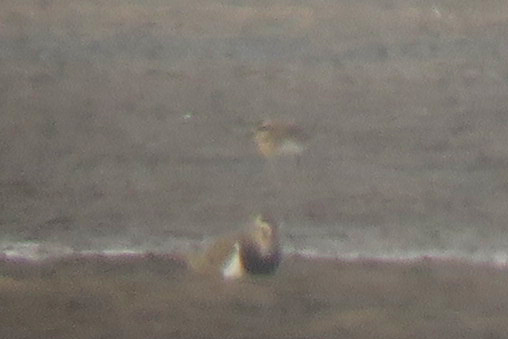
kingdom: Animalia
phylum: Chordata
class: Aves
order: Charadriiformes
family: Charadriidae
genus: Charadrius
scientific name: Charadrius asiaticus
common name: Caspian plover
